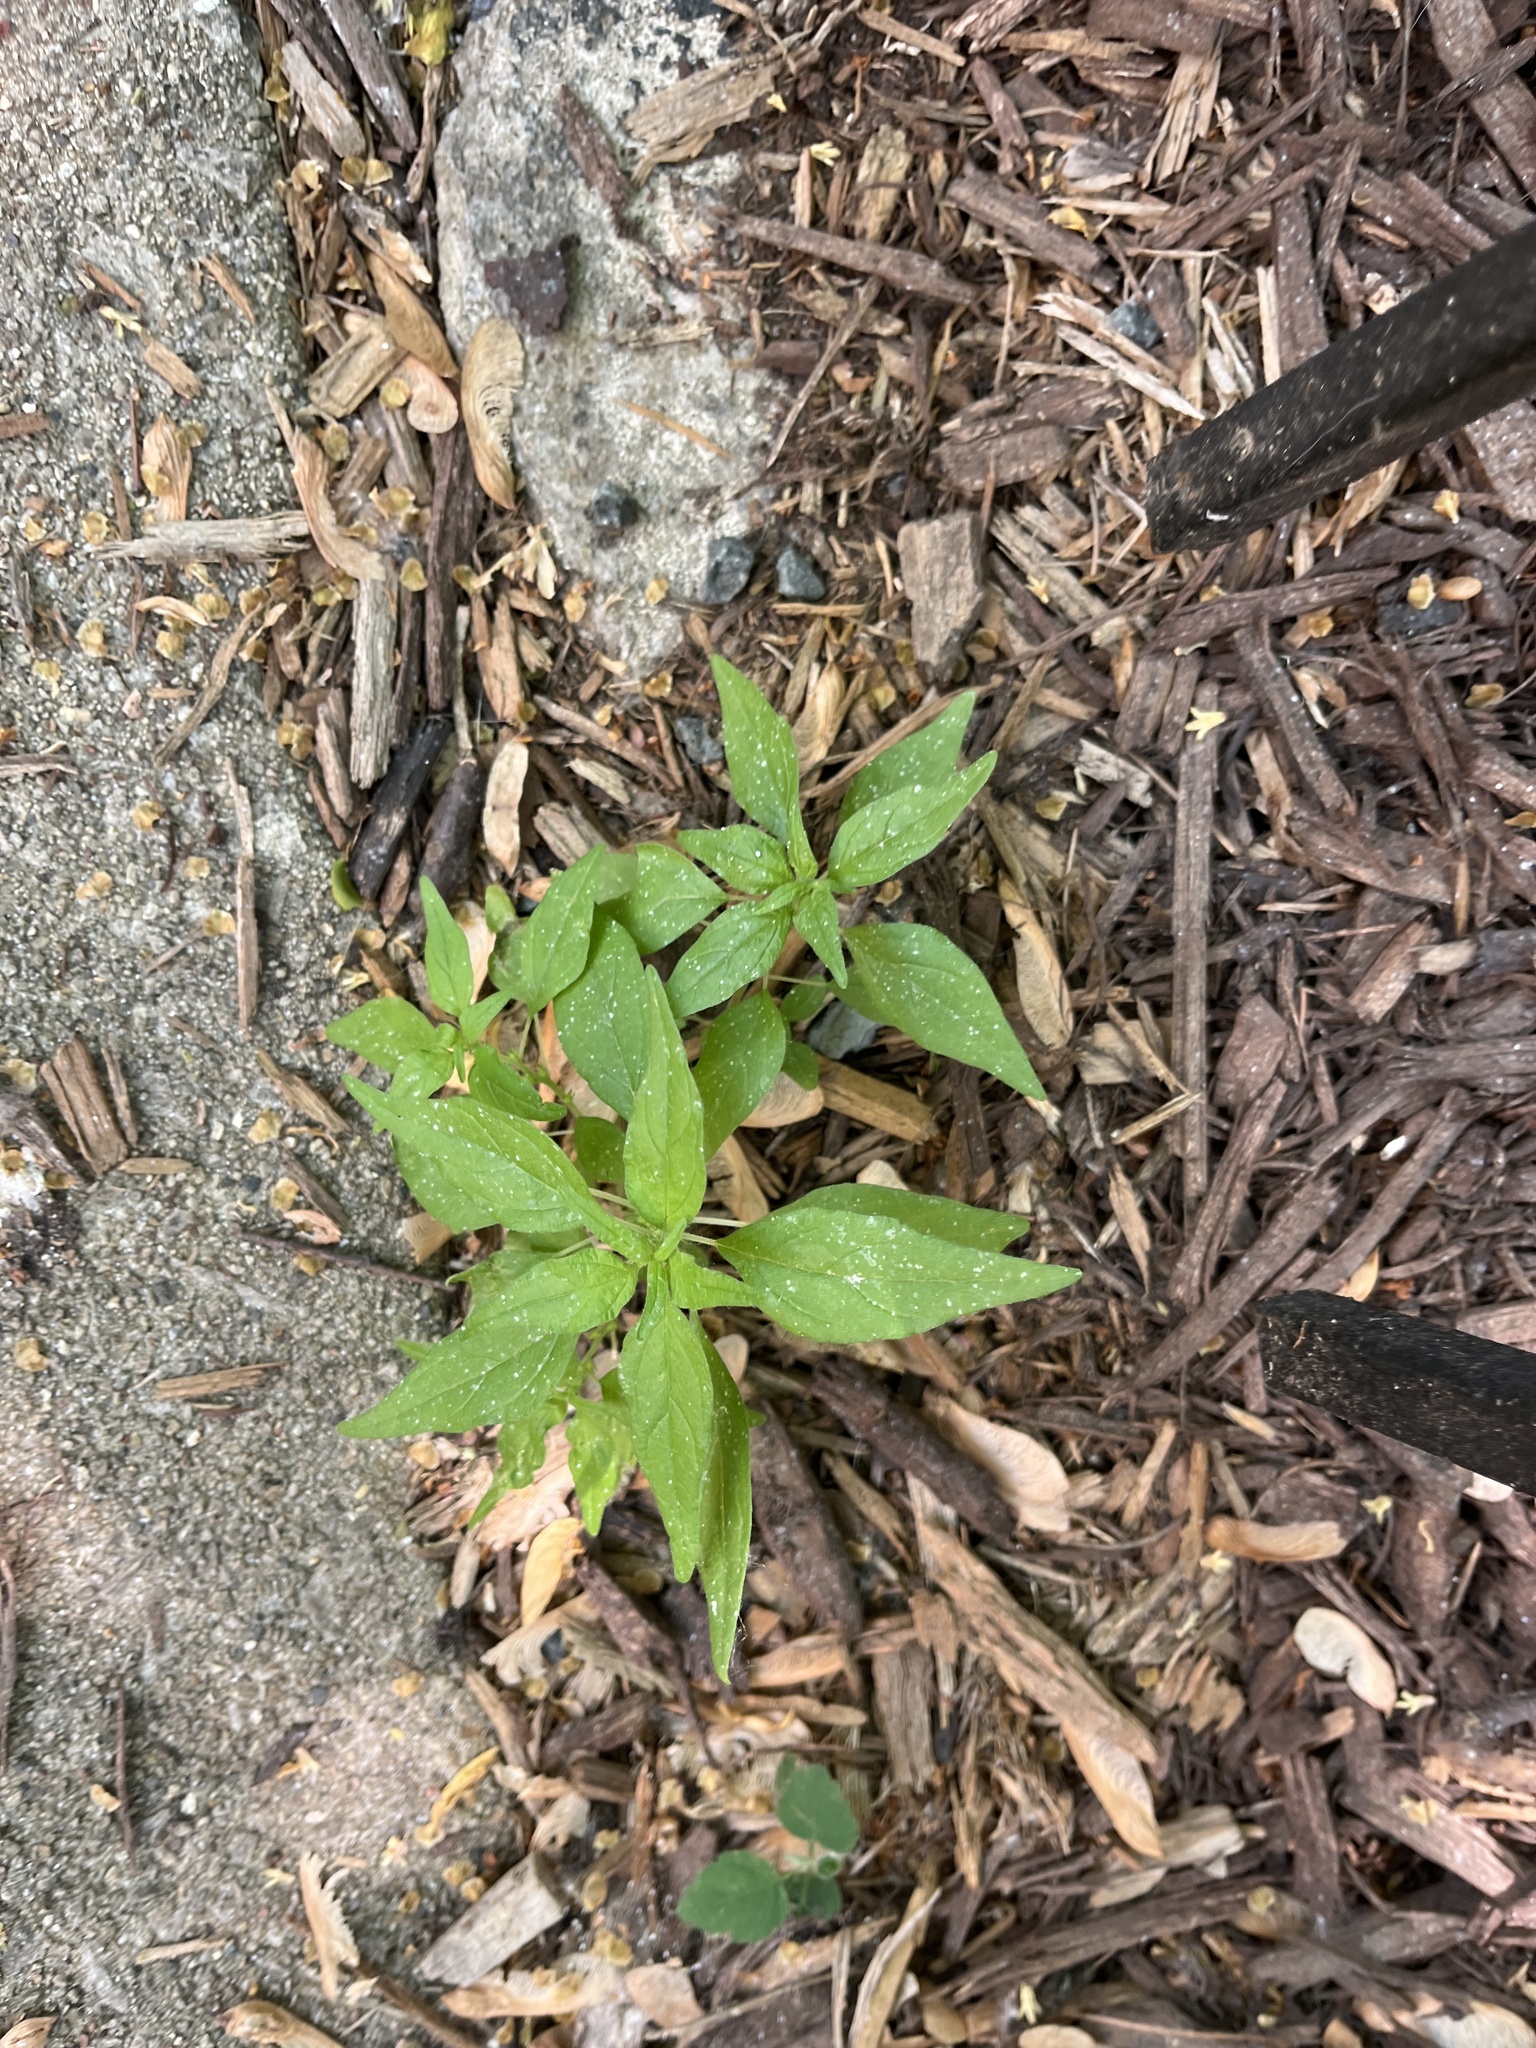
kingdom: Plantae
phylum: Tracheophyta
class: Magnoliopsida
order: Rosales
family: Urticaceae
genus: Parietaria
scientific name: Parietaria pensylvanica
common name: Pennsylvania pellitory
